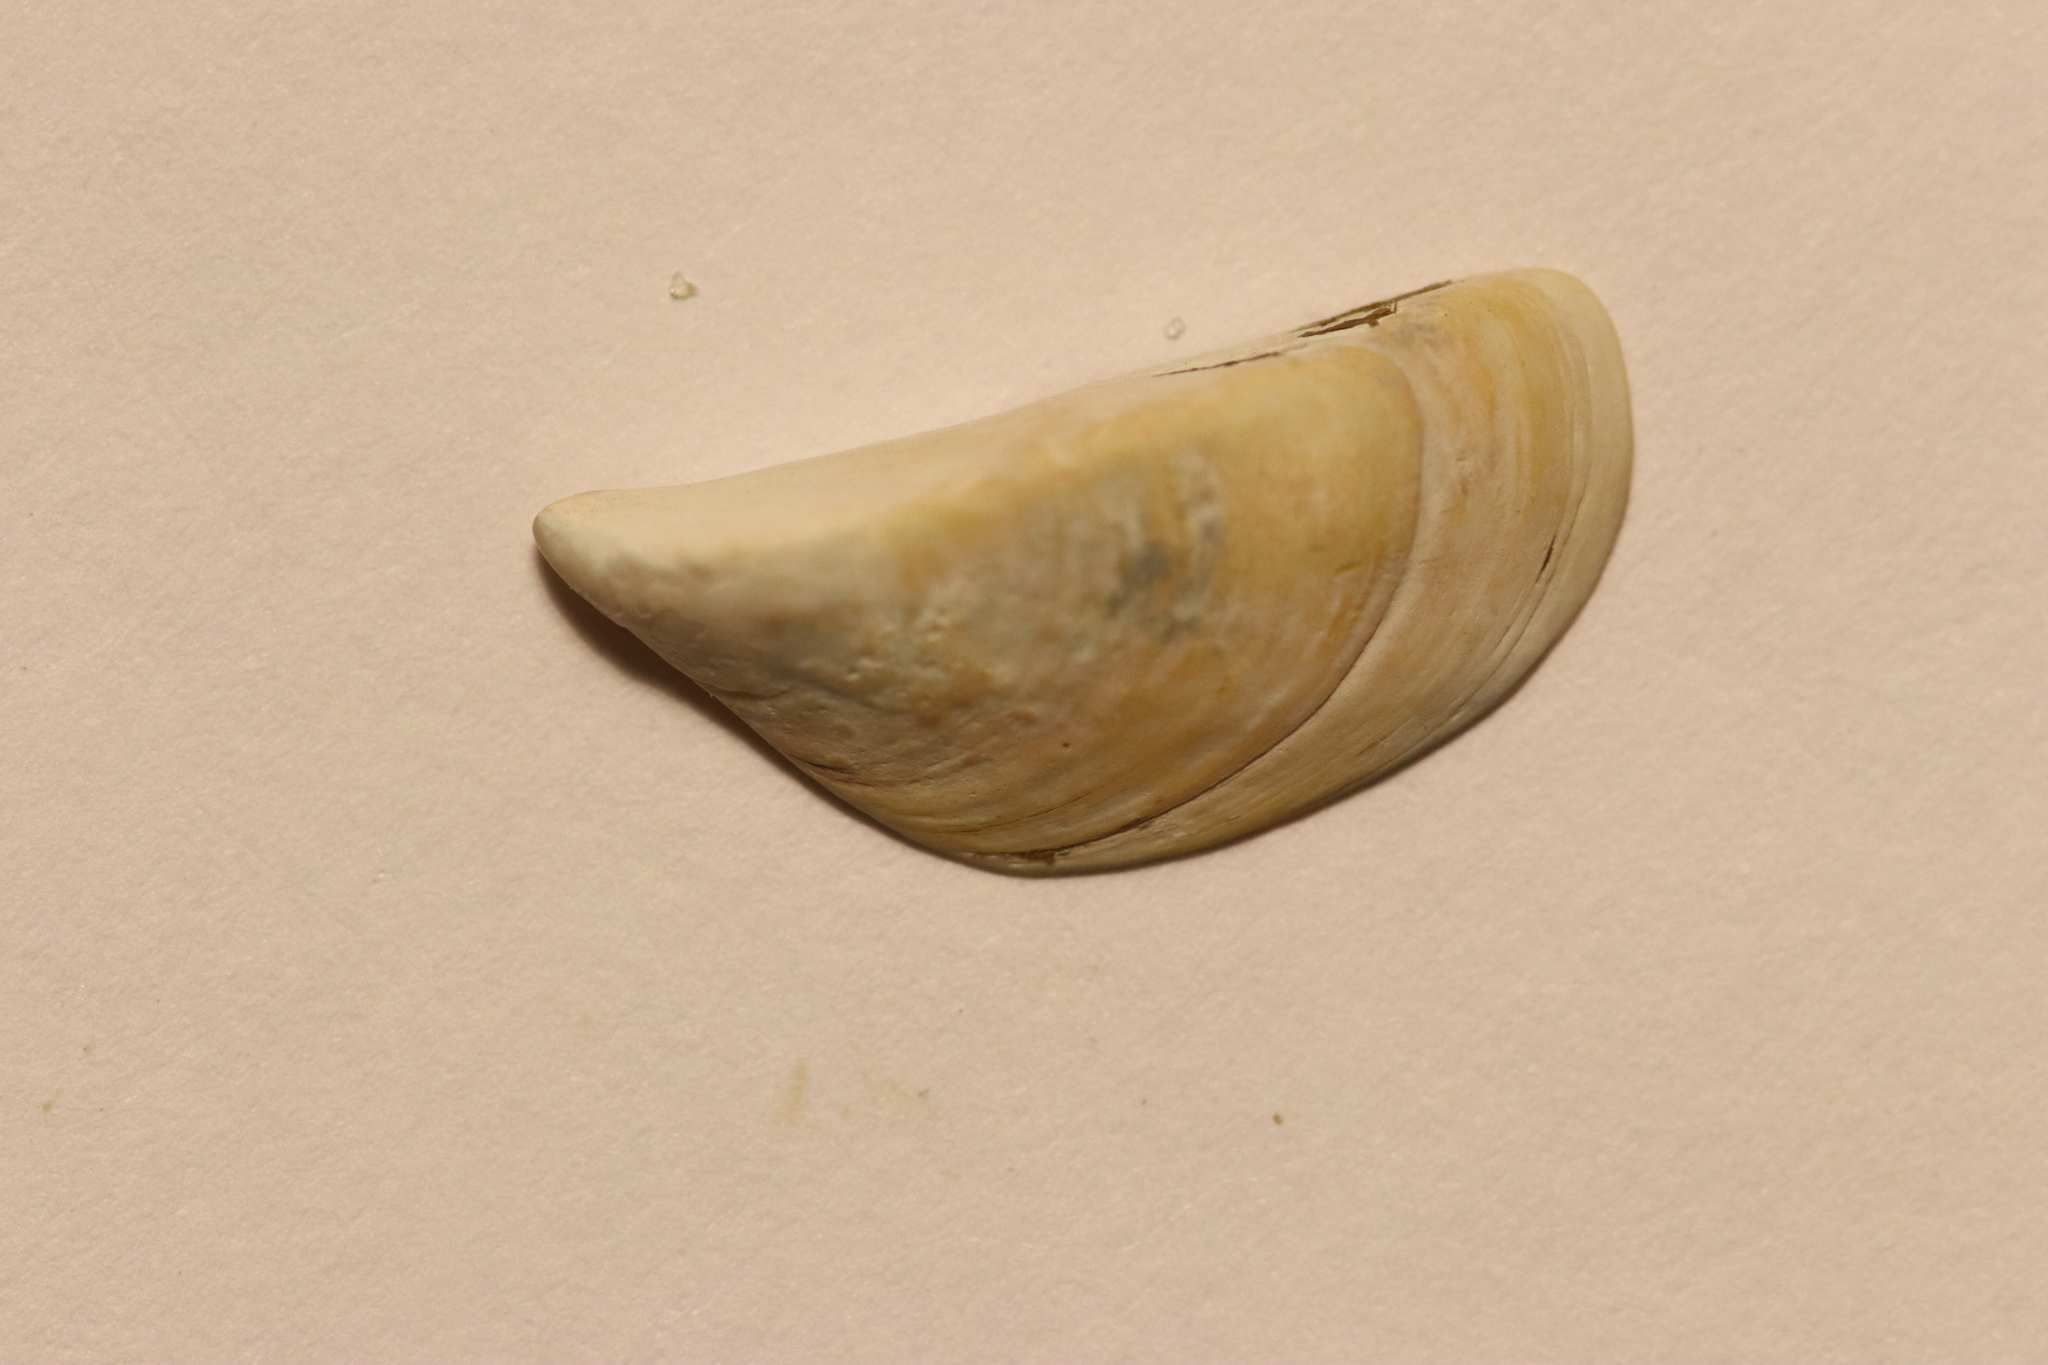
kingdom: Animalia
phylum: Mollusca
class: Bivalvia
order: Myida
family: Dreissenidae
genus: Dreissena
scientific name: Dreissena polymorpha
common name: Zebra mussel
